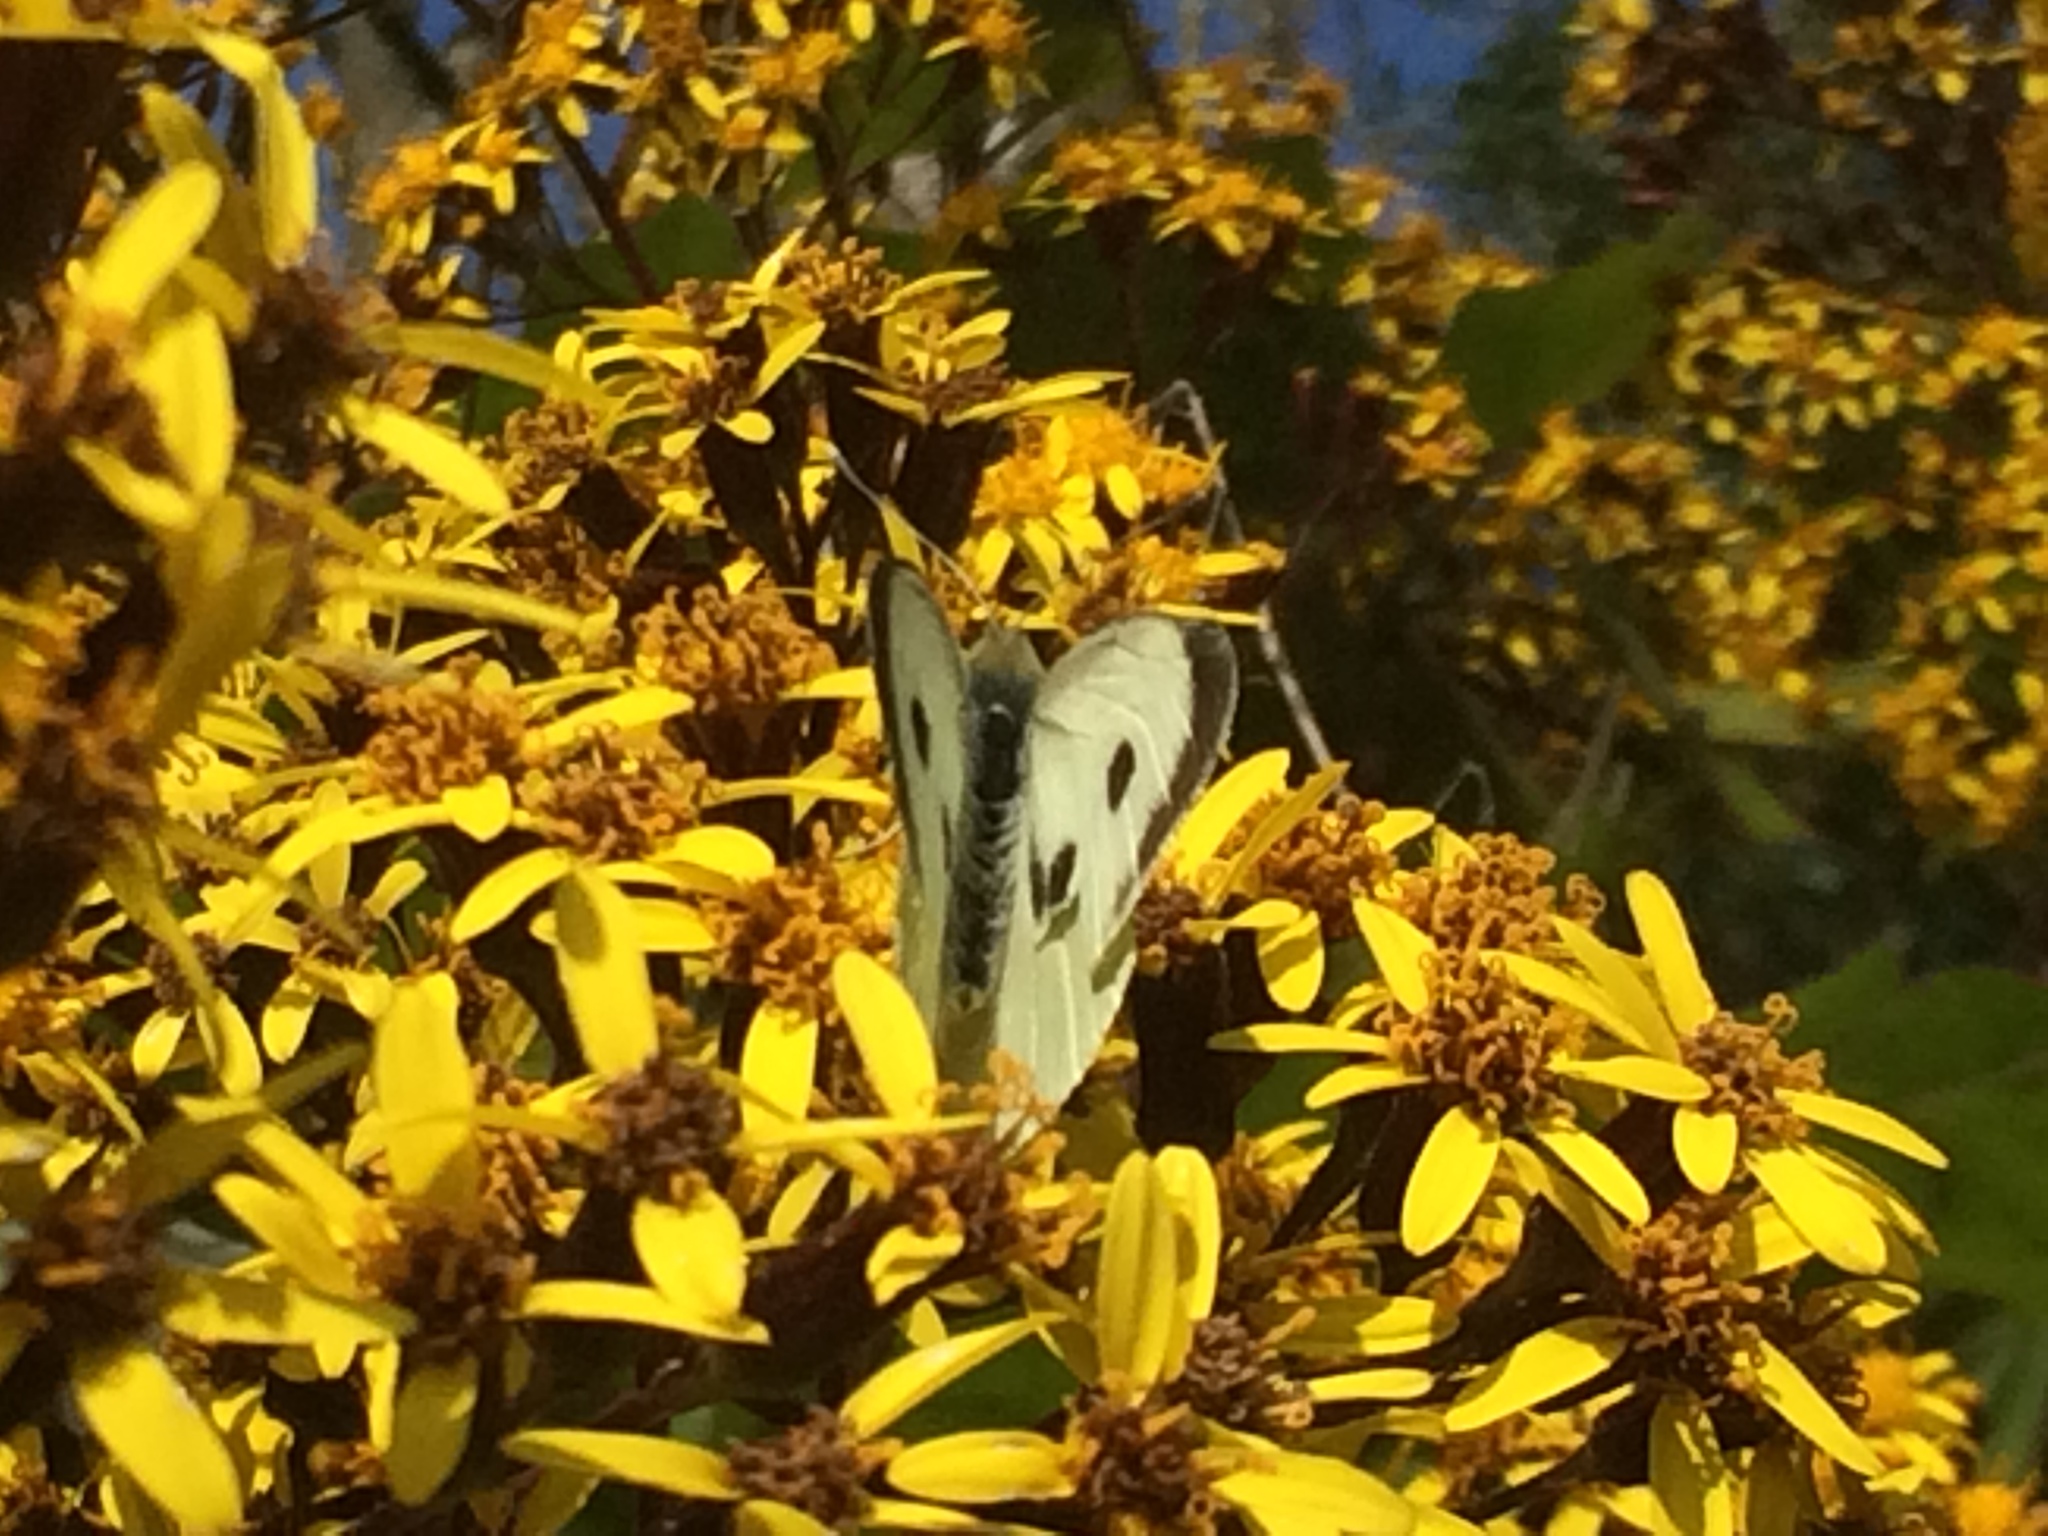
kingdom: Animalia
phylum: Arthropoda
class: Insecta
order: Lepidoptera
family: Pieridae
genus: Pieris
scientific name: Pieris brassicae
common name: Large white
